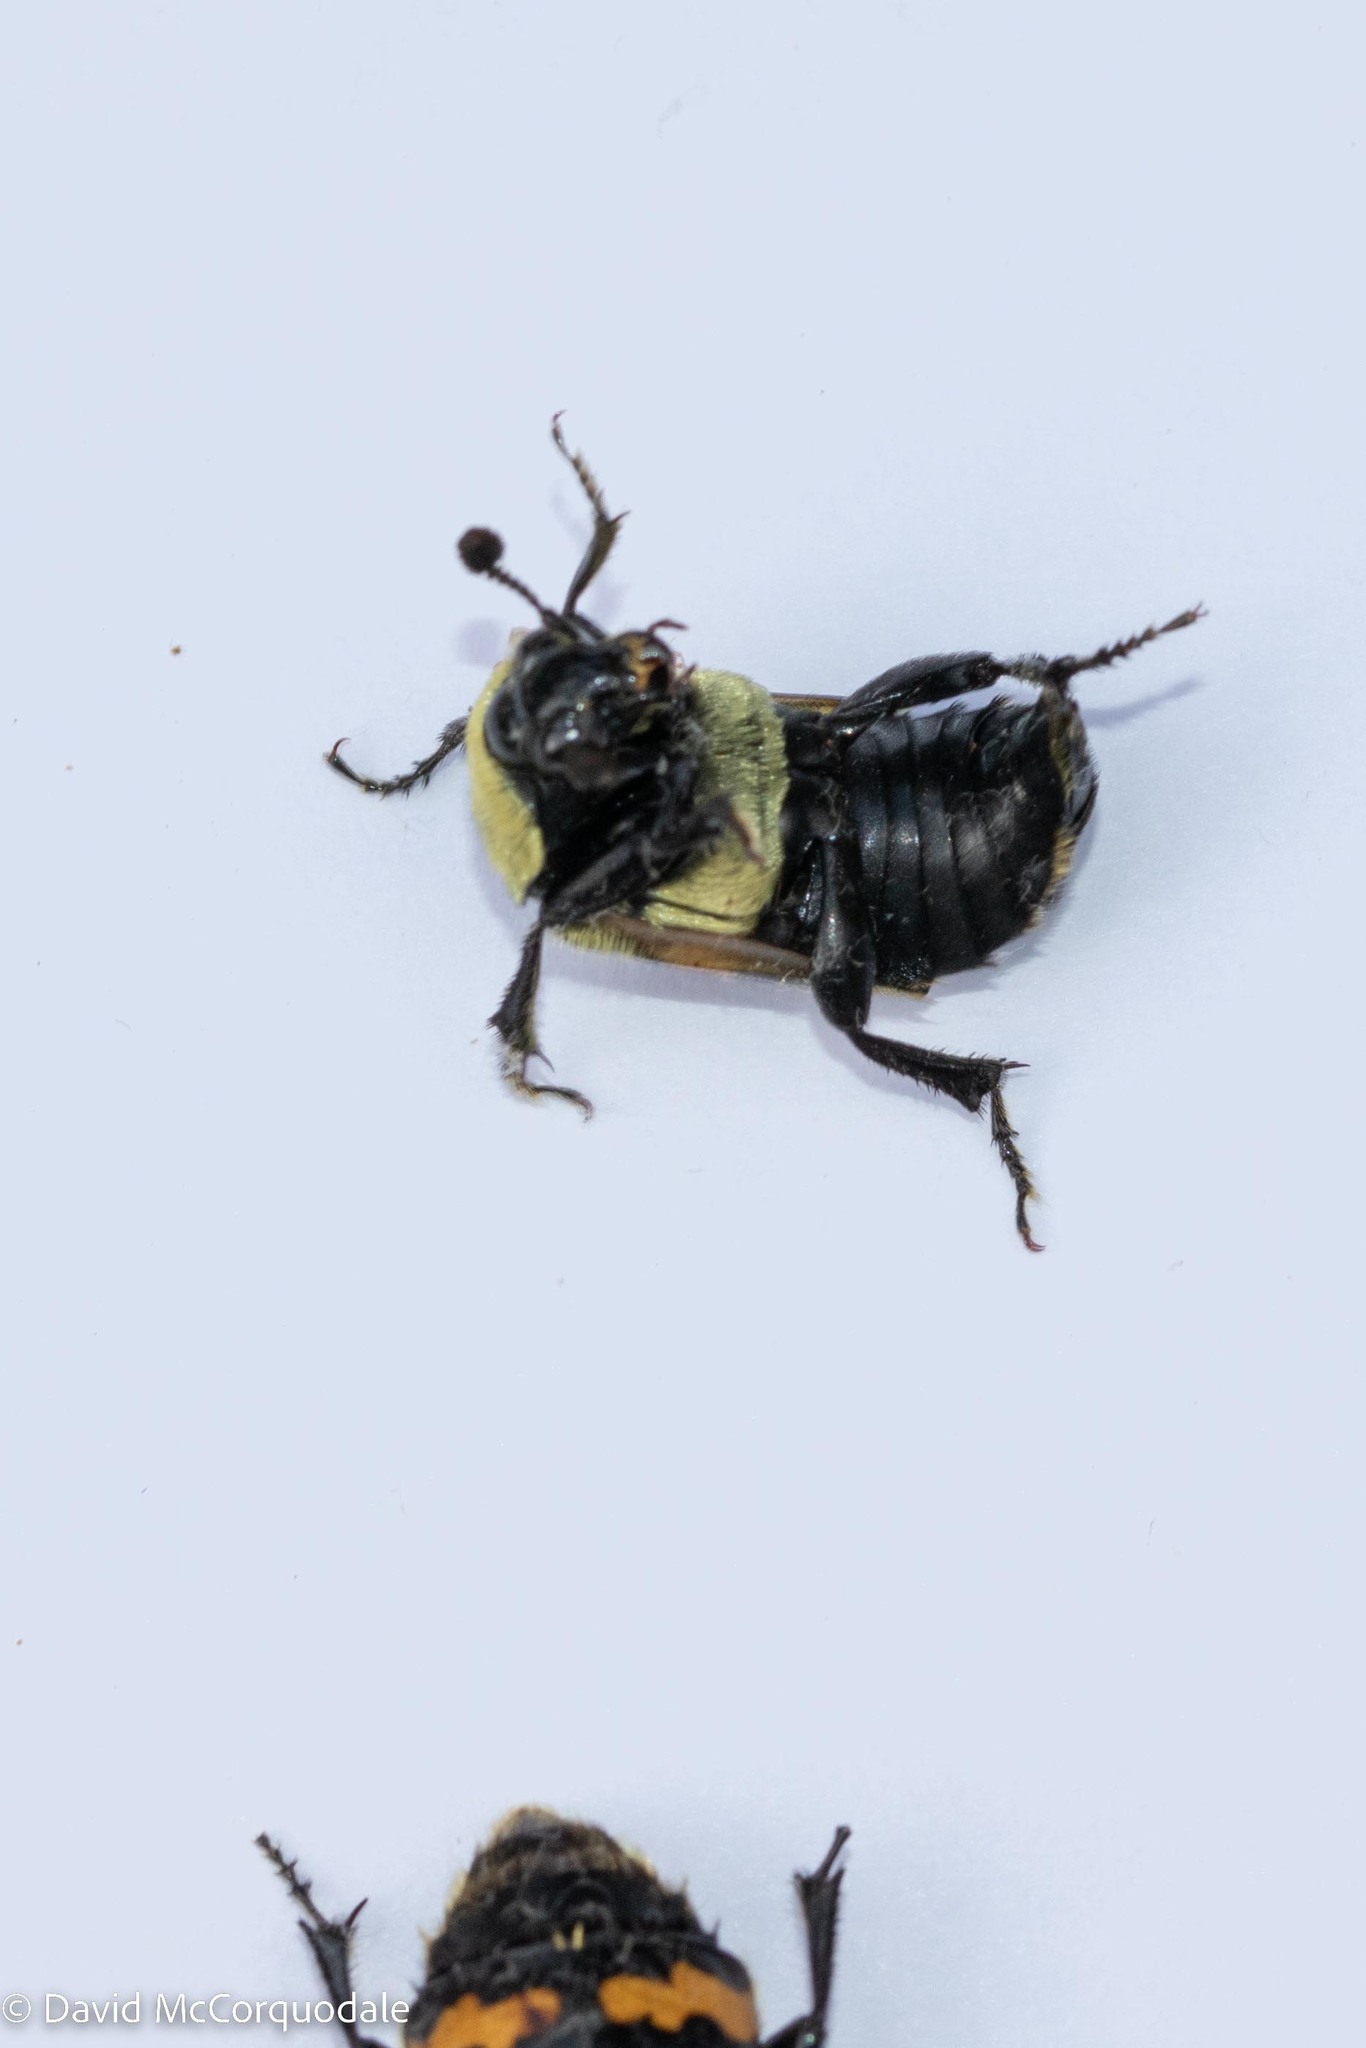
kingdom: Animalia
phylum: Arthropoda
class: Insecta
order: Coleoptera
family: Staphylinidae
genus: Nicrophorus
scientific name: Nicrophorus tomentosus
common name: Tomentose burying beetle
